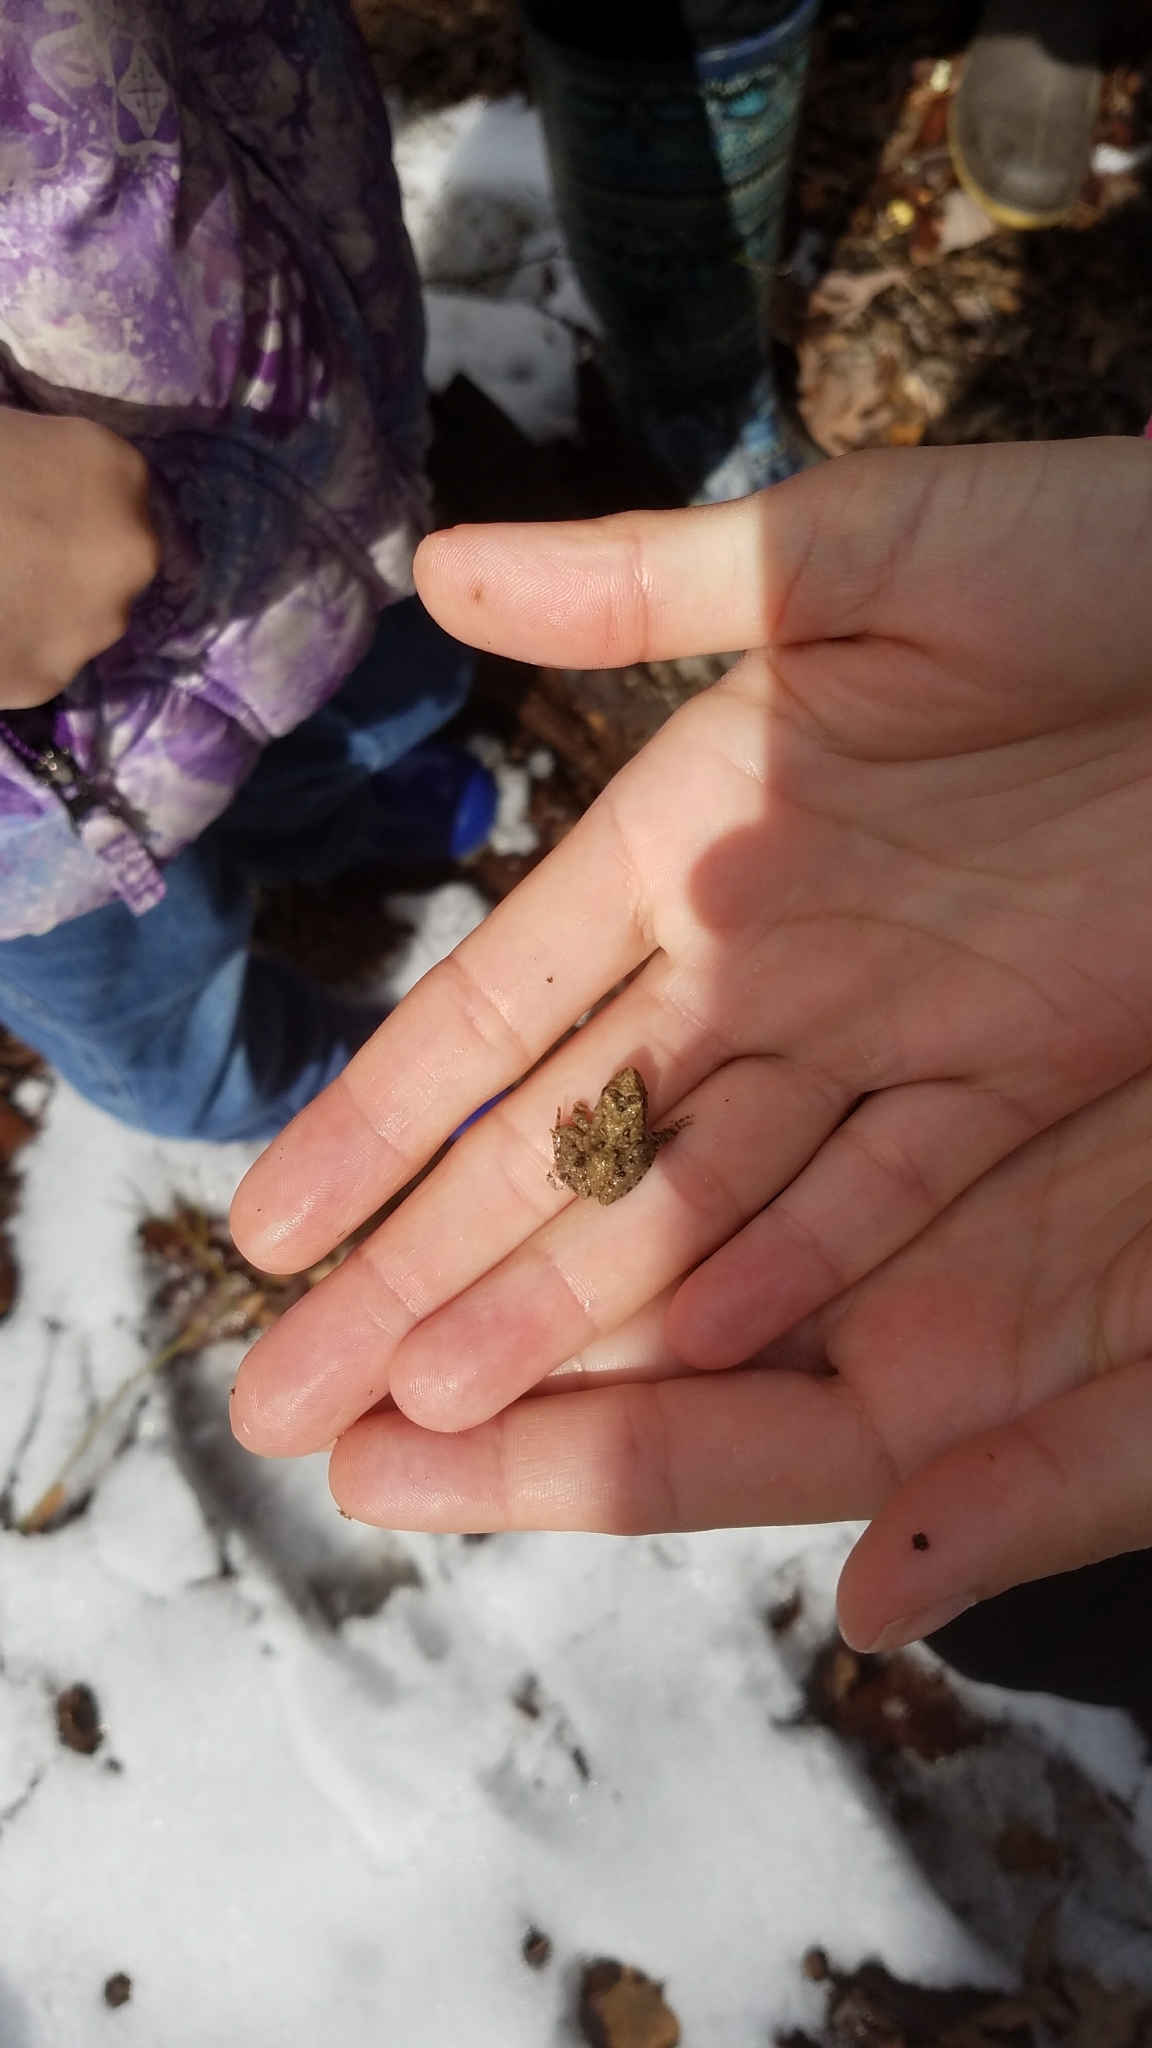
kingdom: Animalia
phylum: Chordata
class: Amphibia
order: Anura
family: Hylidae
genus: Acris
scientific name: Acris crepitans
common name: Northern cricket frog
